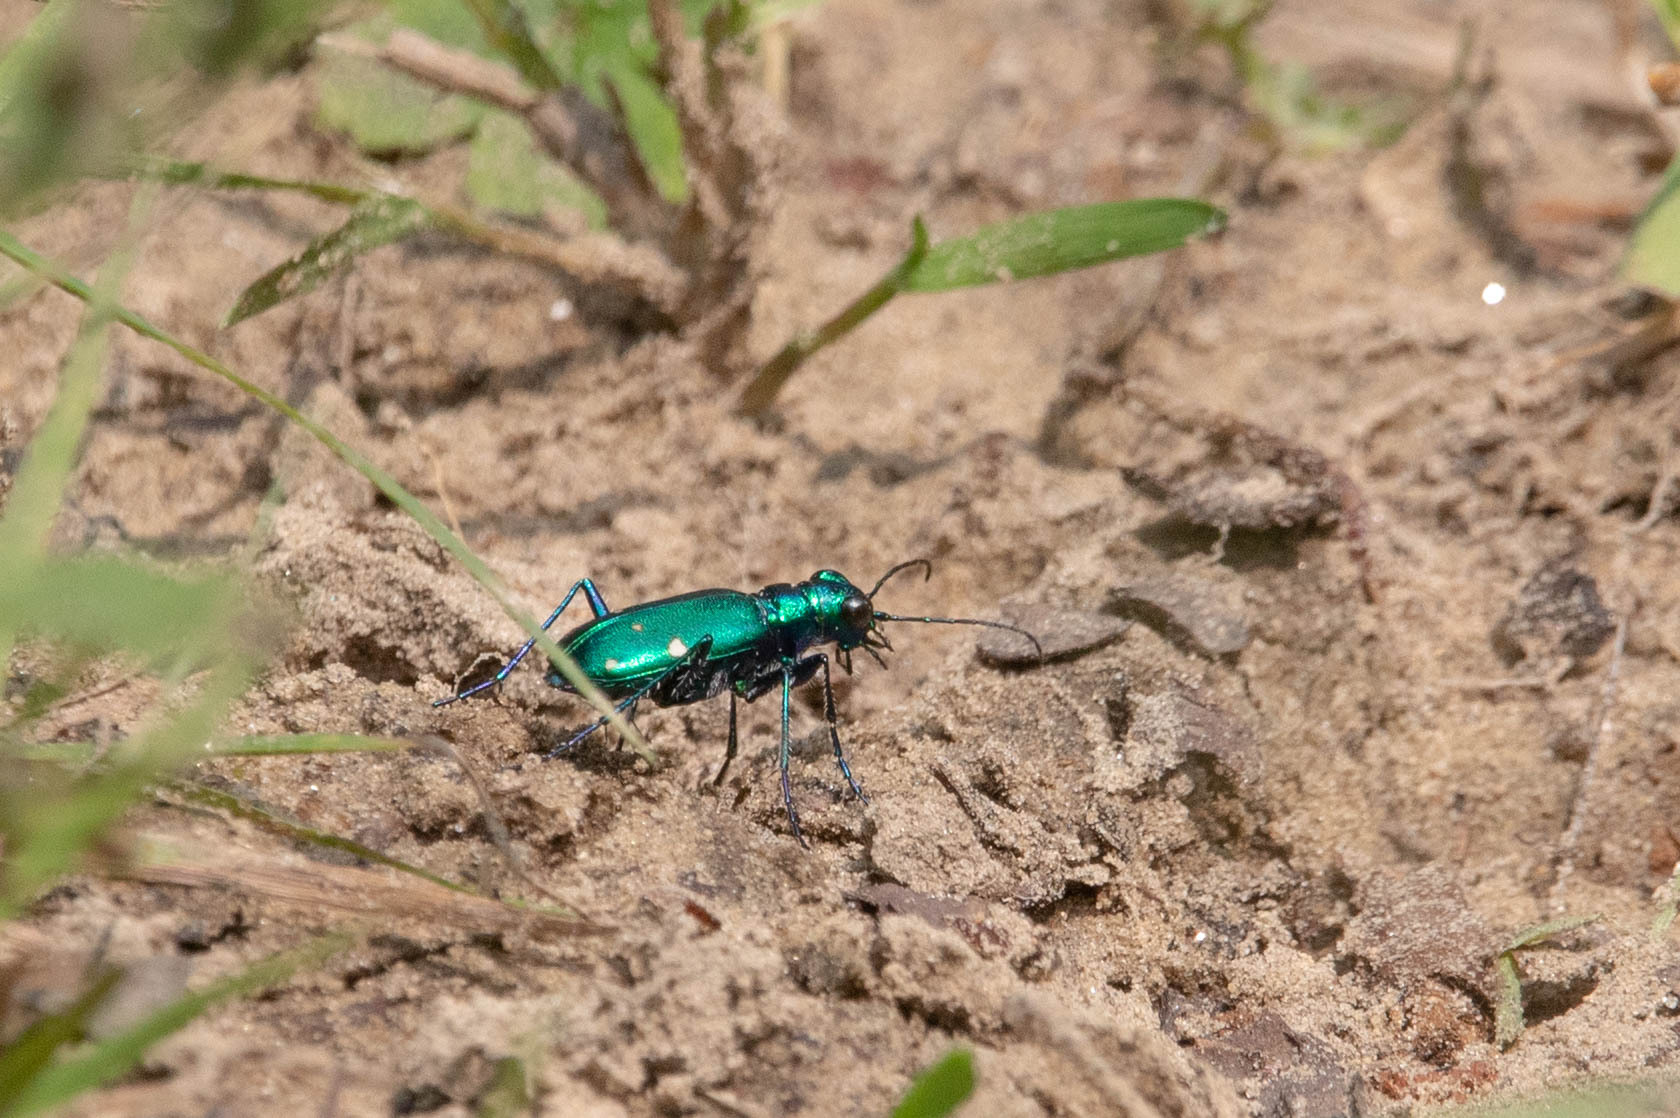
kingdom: Animalia
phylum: Arthropoda
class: Insecta
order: Coleoptera
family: Carabidae
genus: Cicindela
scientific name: Cicindela sexguttata
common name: Six-spotted tiger beetle
